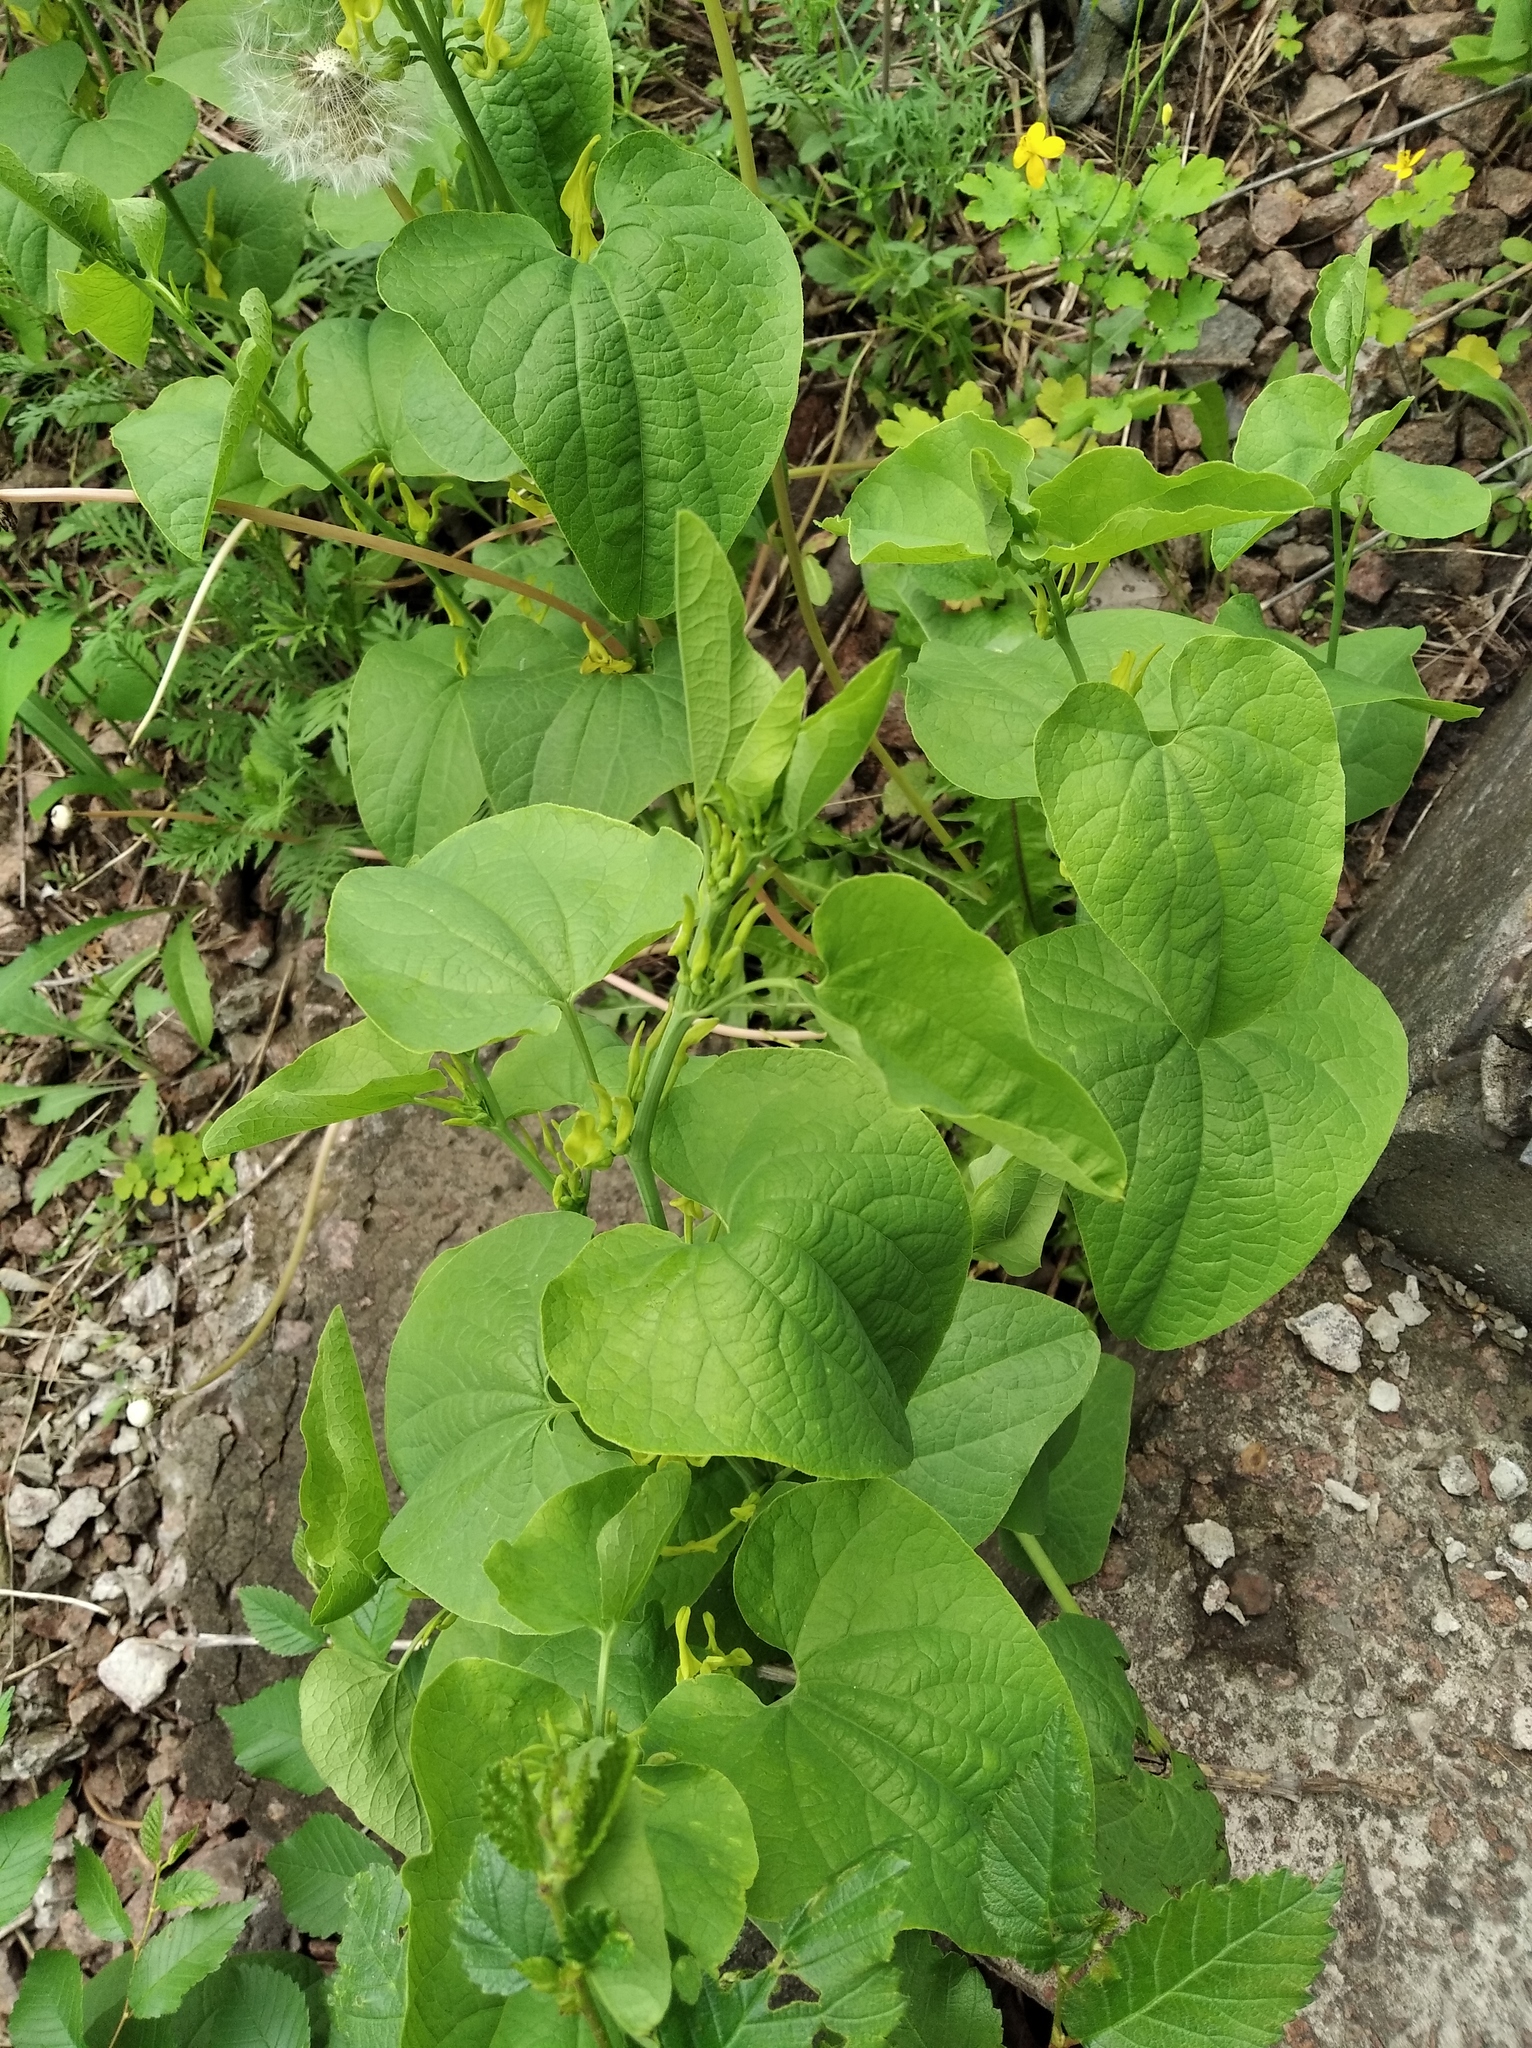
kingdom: Plantae
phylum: Tracheophyta
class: Magnoliopsida
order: Piperales
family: Aristolochiaceae
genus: Aristolochia
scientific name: Aristolochia clematitis
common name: Birthwort
